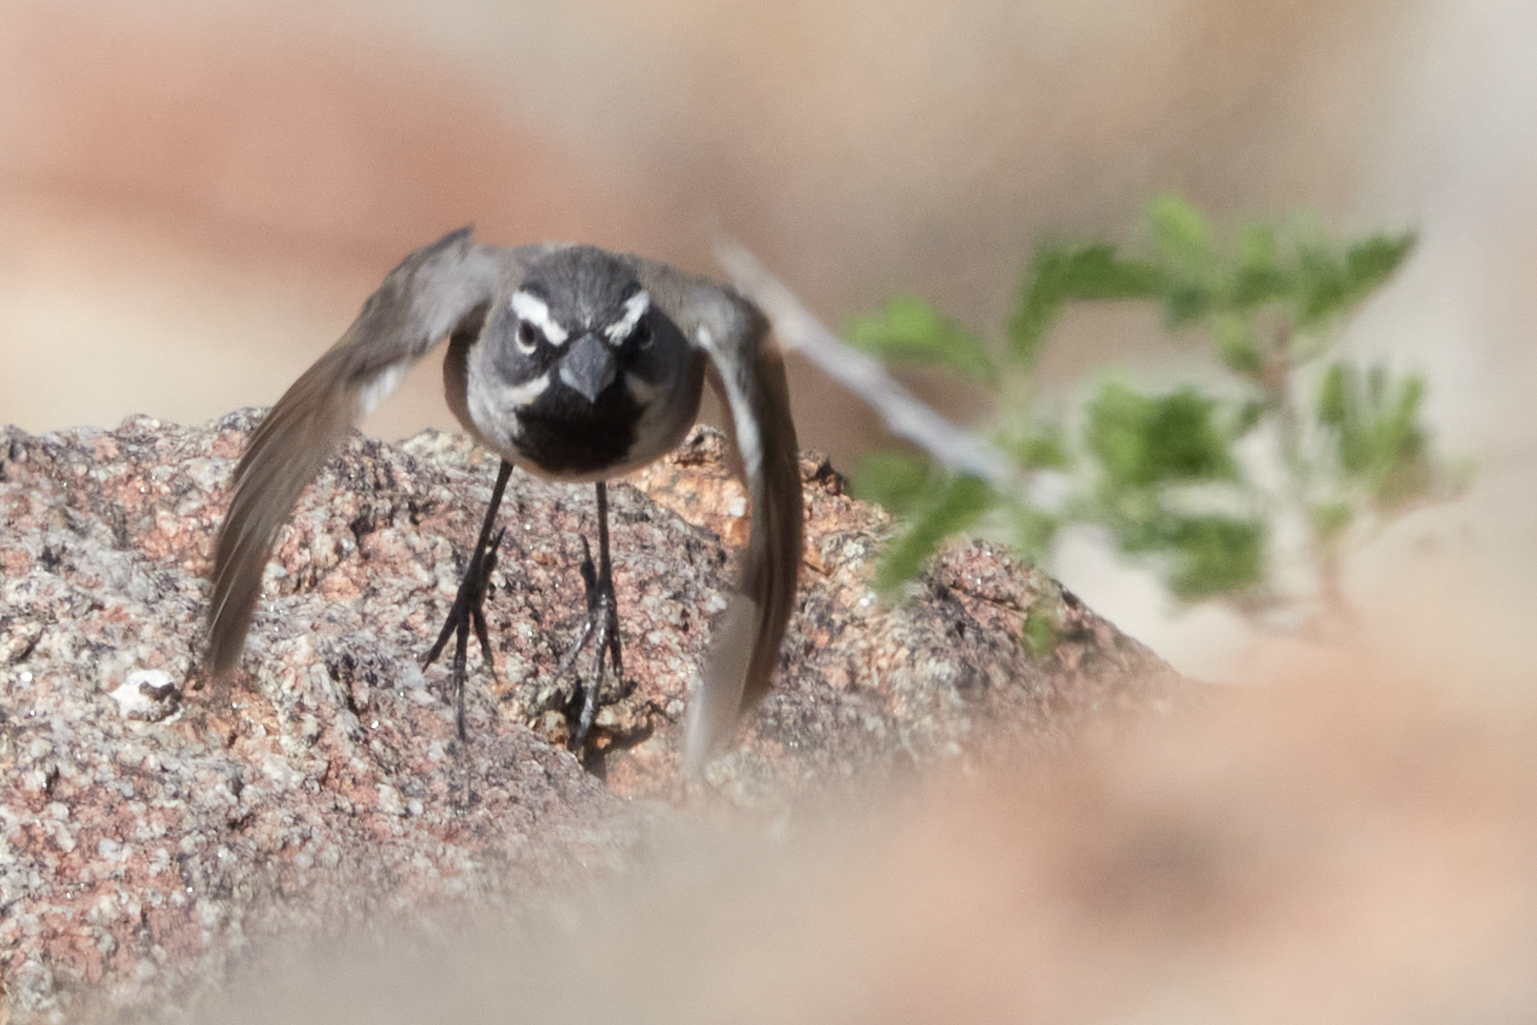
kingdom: Animalia
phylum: Chordata
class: Aves
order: Passeriformes
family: Passerellidae
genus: Amphispiza
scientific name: Amphispiza bilineata
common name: Black-throated sparrow
